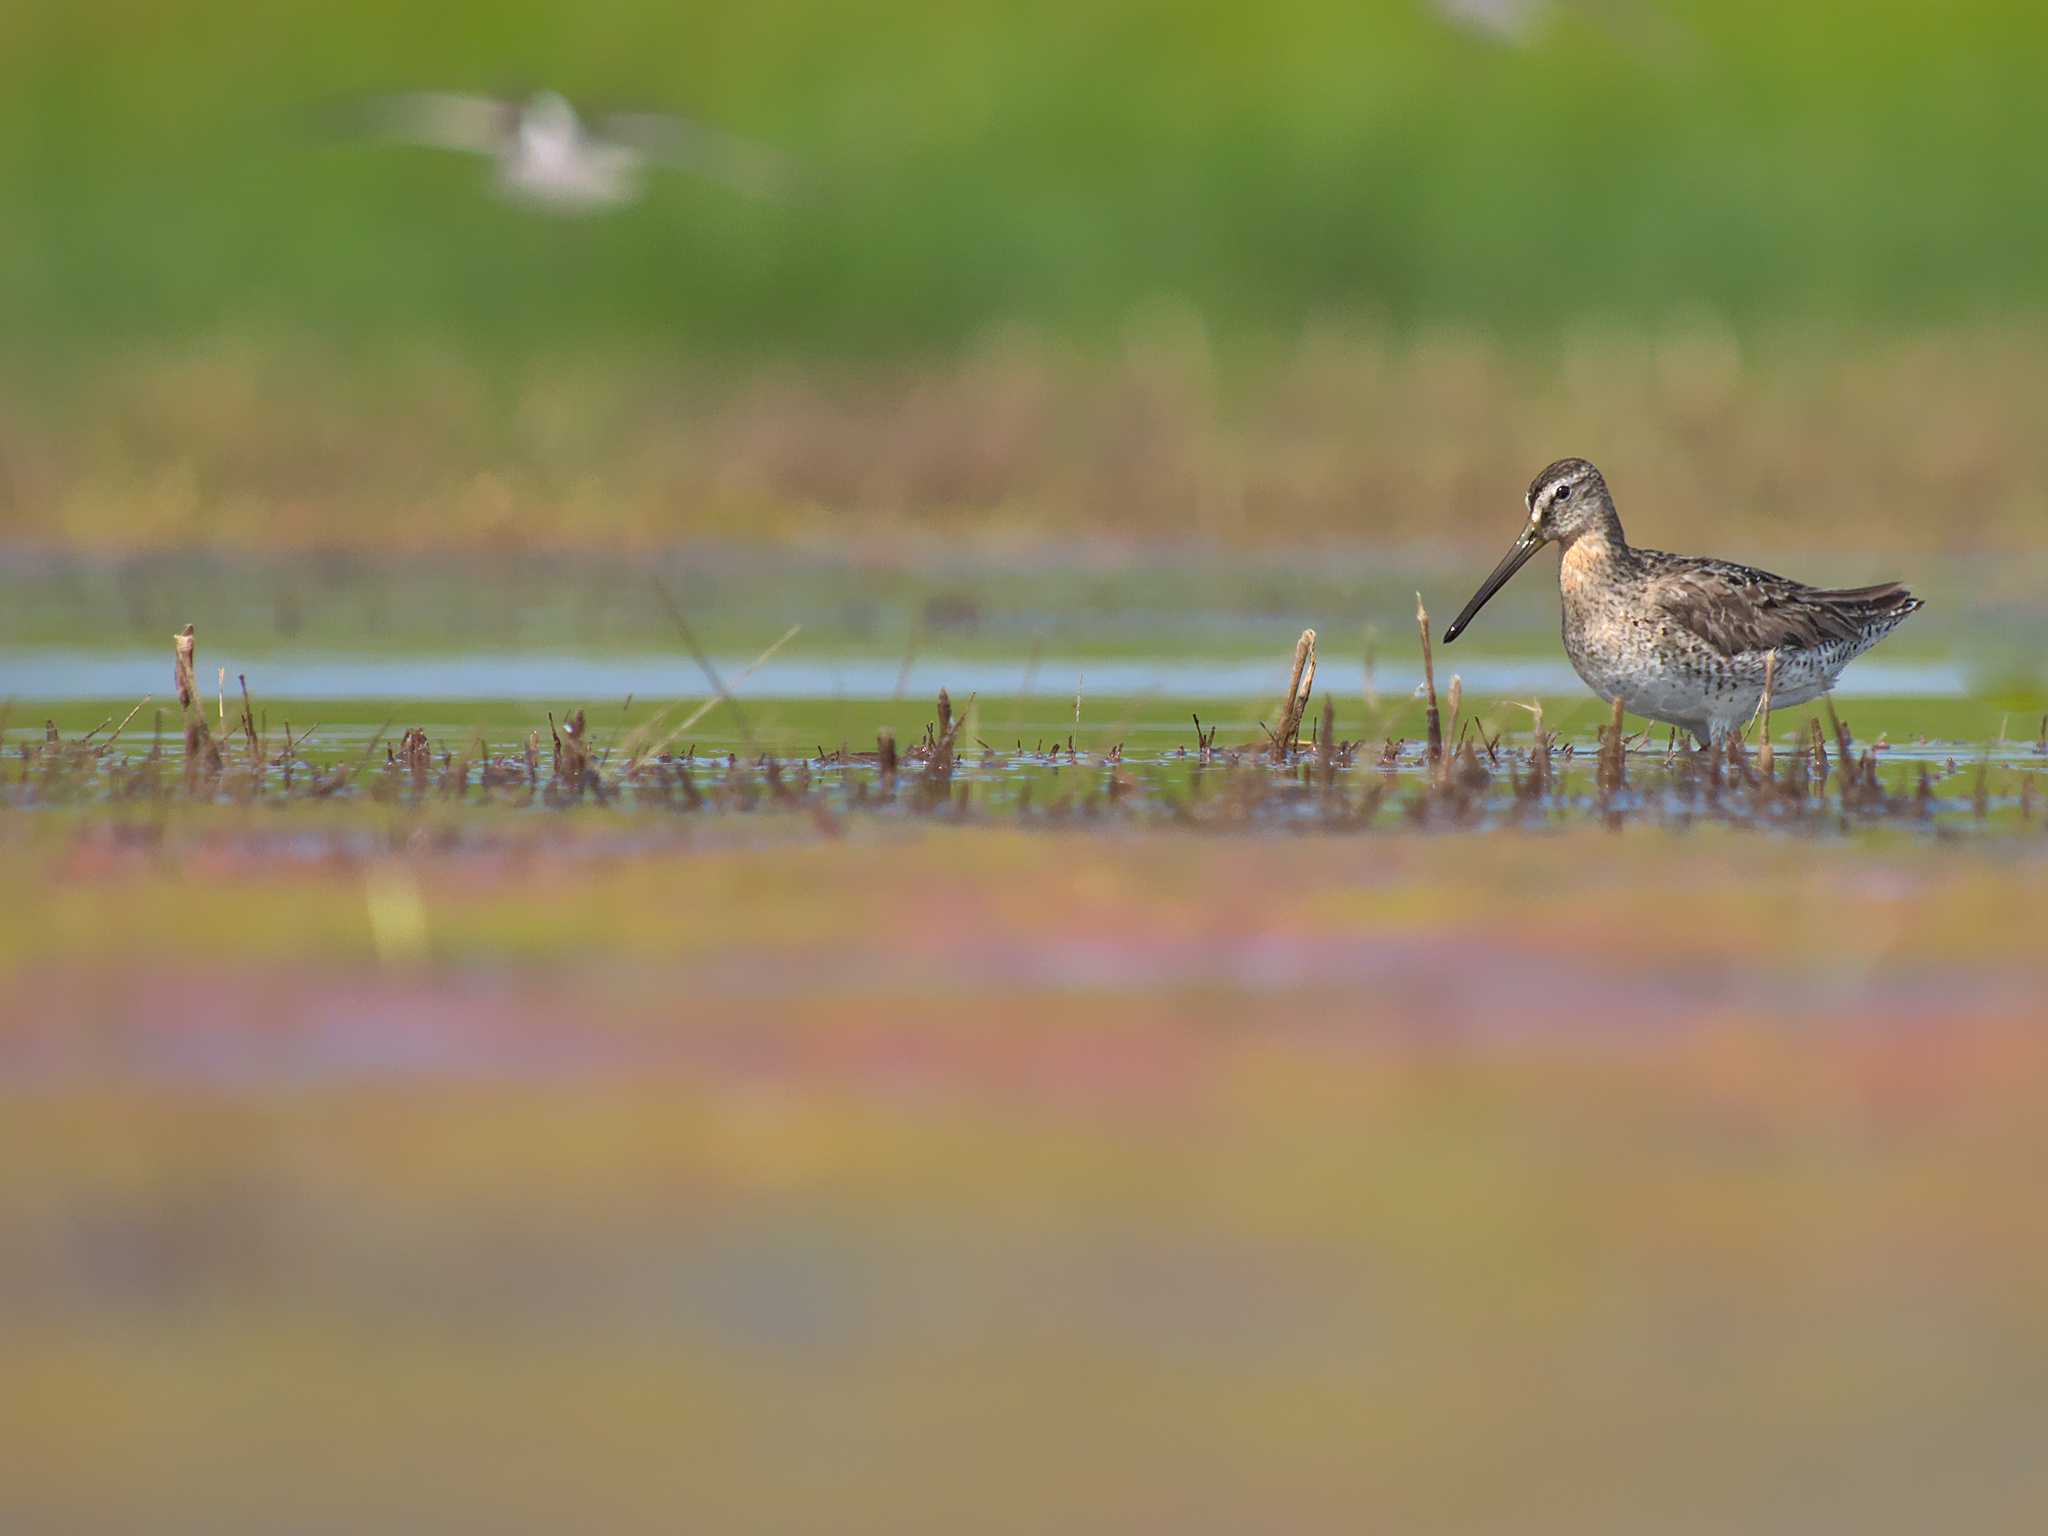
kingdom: Animalia
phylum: Chordata
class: Aves
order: Charadriiformes
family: Scolopacidae
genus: Limnodromus
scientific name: Limnodromus griseus
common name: Short-billed dowitcher
